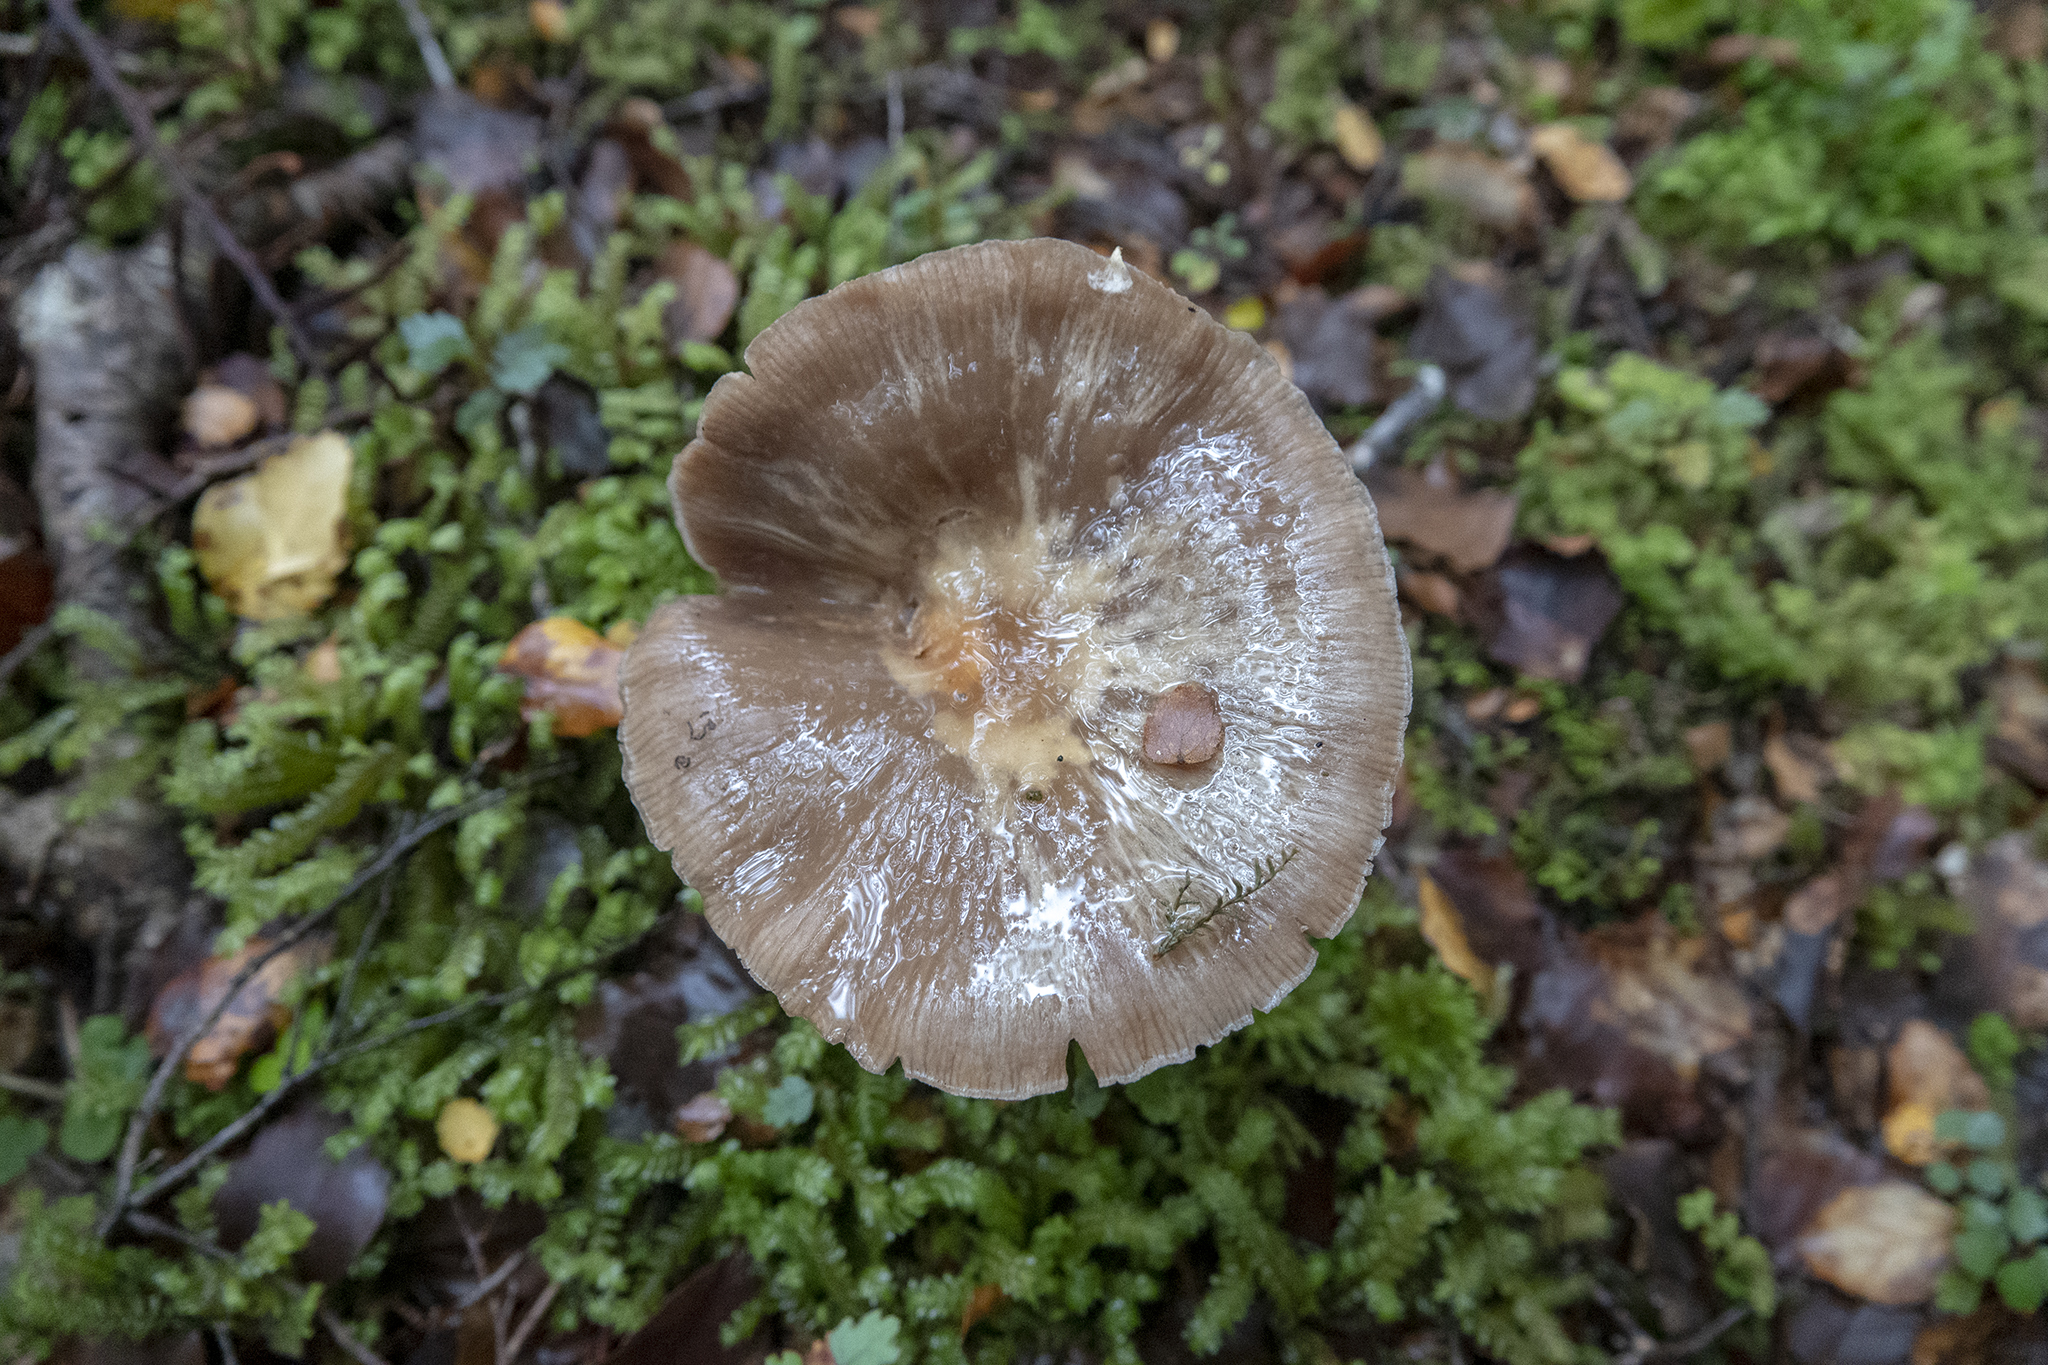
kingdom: Fungi
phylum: Basidiomycota
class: Agaricomycetes
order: Agaricales
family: Physalacriaceae
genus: Armillaria
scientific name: Armillaria novae-zelandiae
